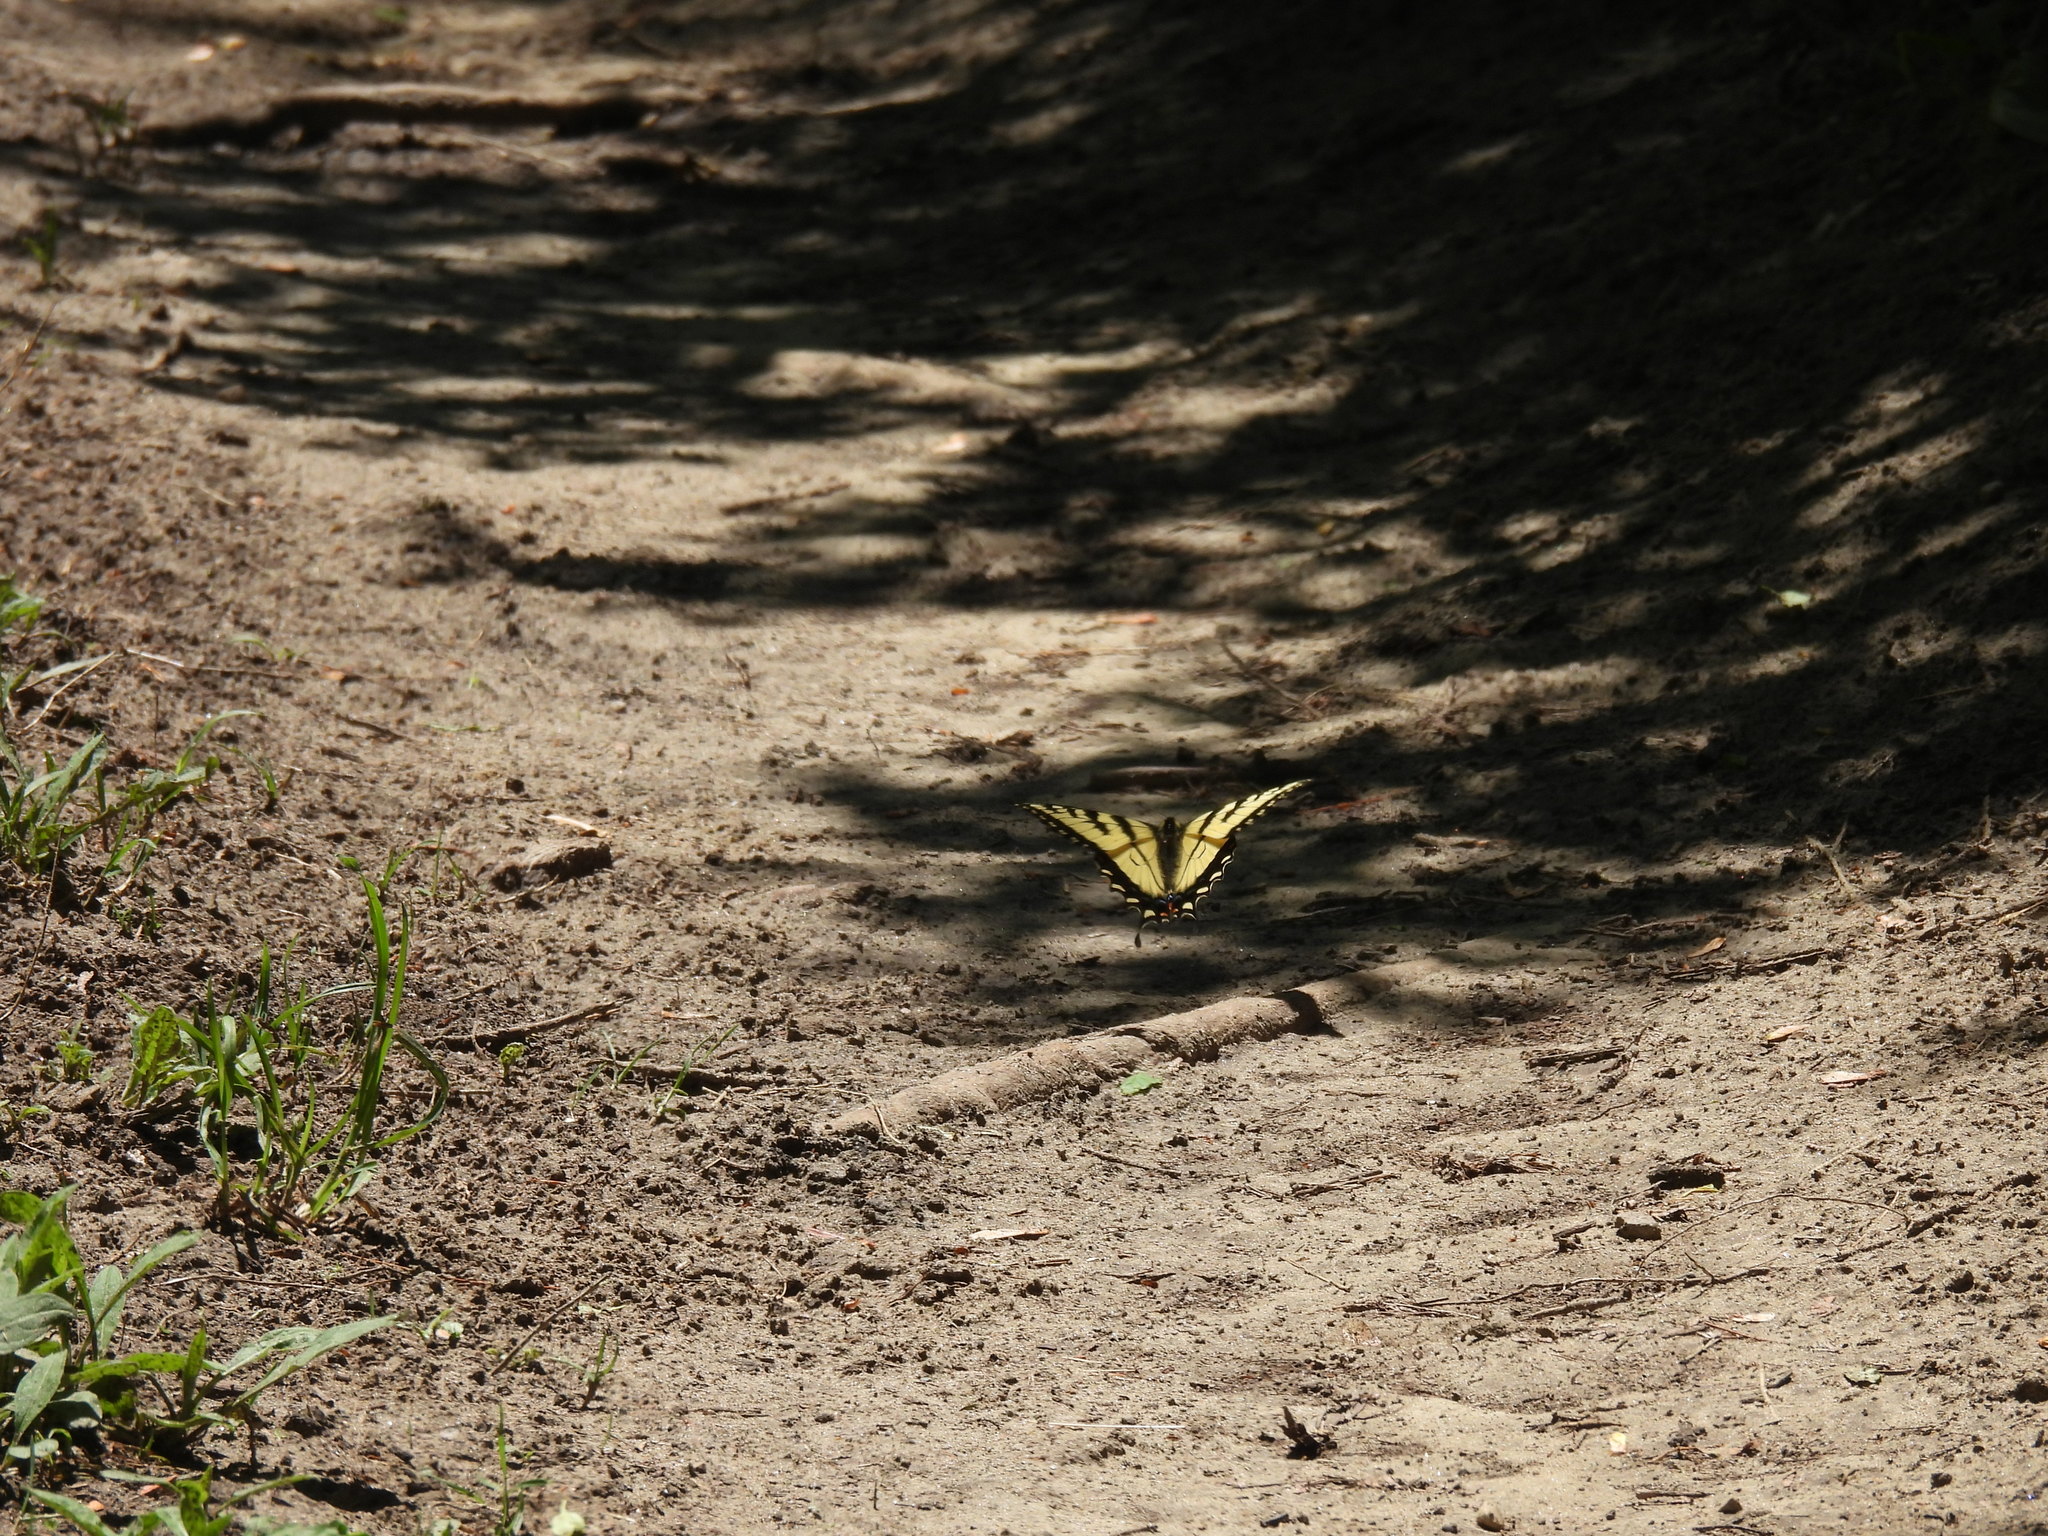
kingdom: Animalia
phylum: Arthropoda
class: Insecta
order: Lepidoptera
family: Papilionidae
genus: Papilio
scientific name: Papilio canadensis
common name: Canadian tiger swallowtail
